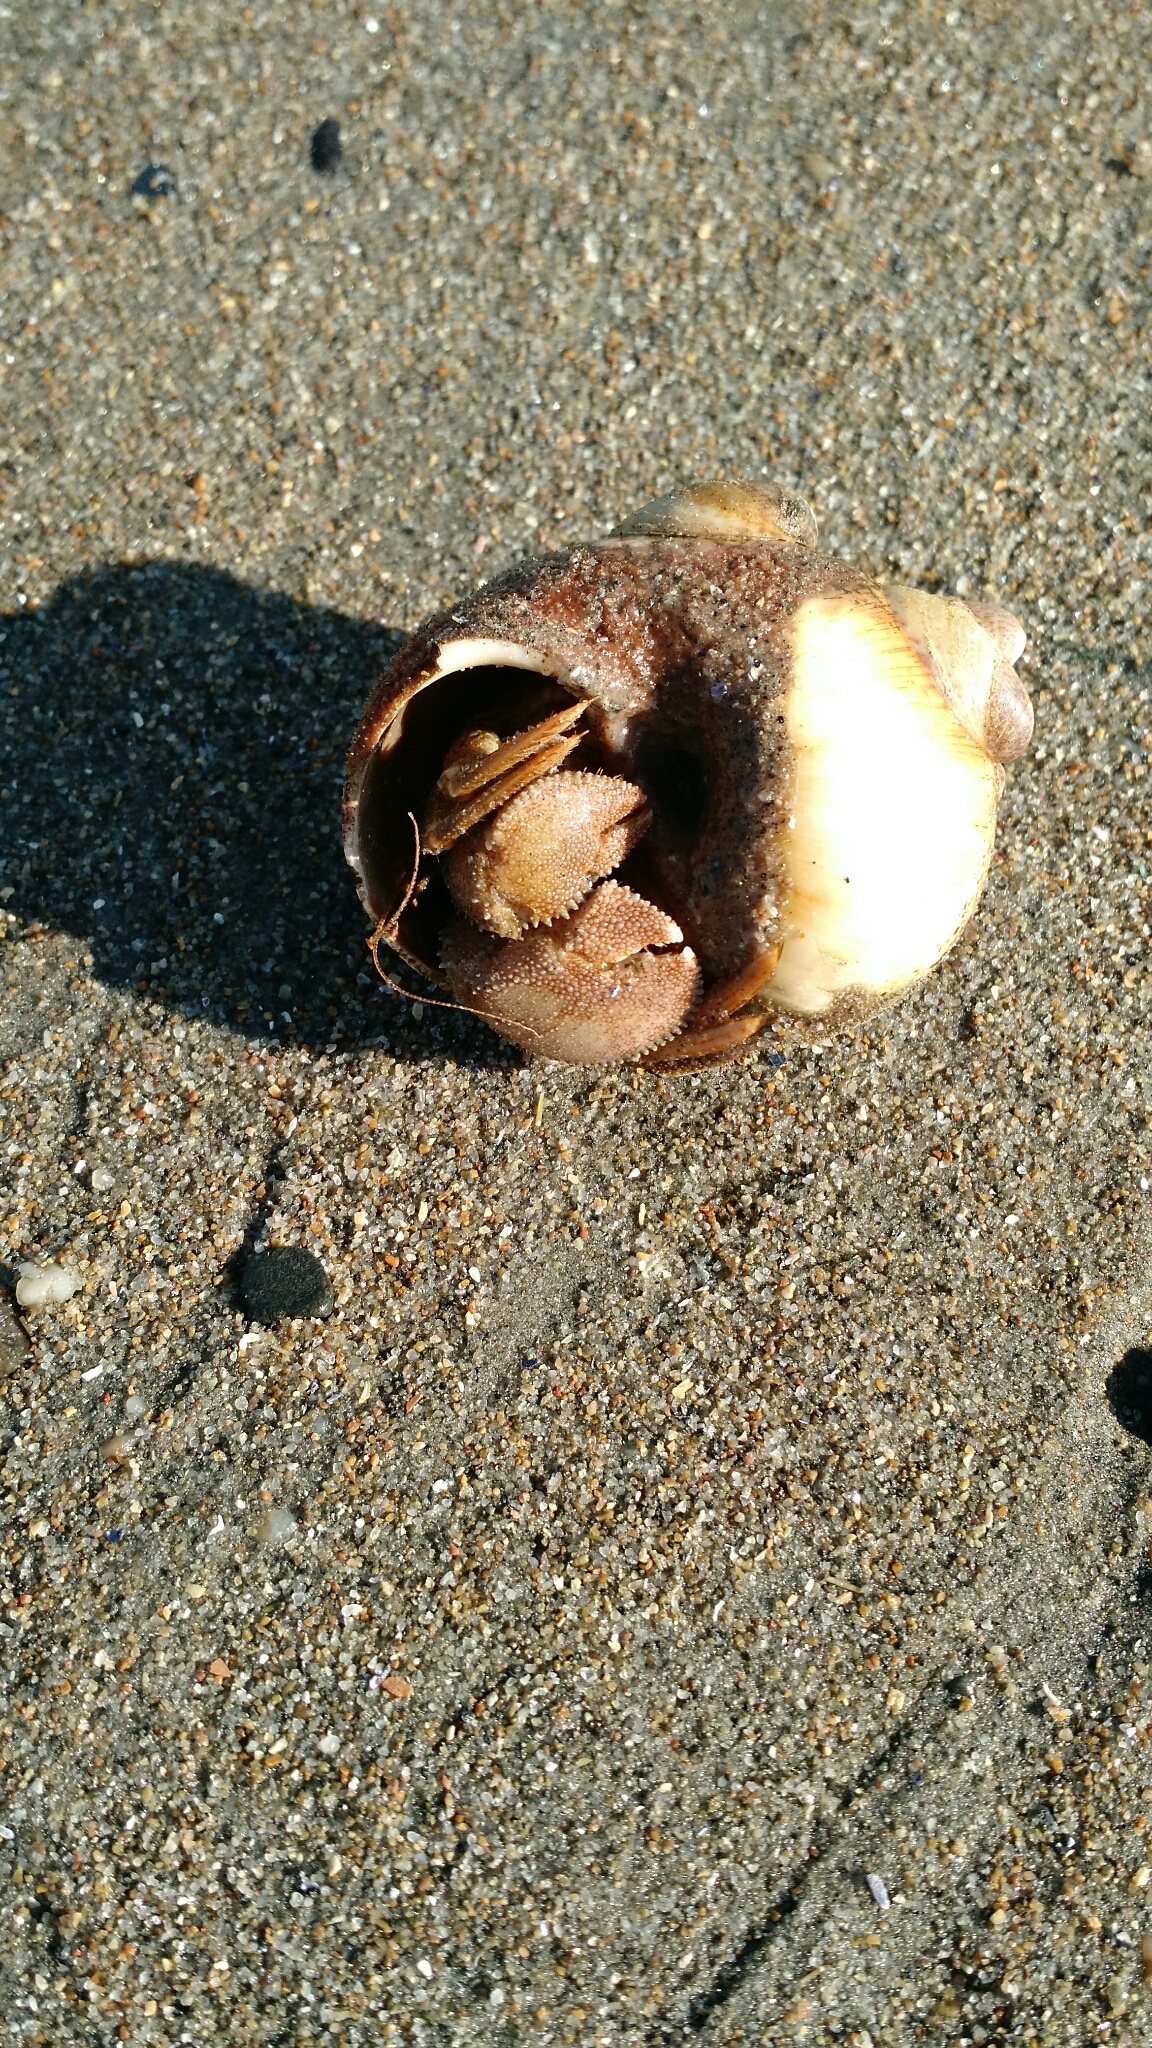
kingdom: Animalia
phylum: Arthropoda
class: Malacostraca
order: Decapoda
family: Paguridae
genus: Pagurus
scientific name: Pagurus pollicaris
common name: Flatclaw hermit
